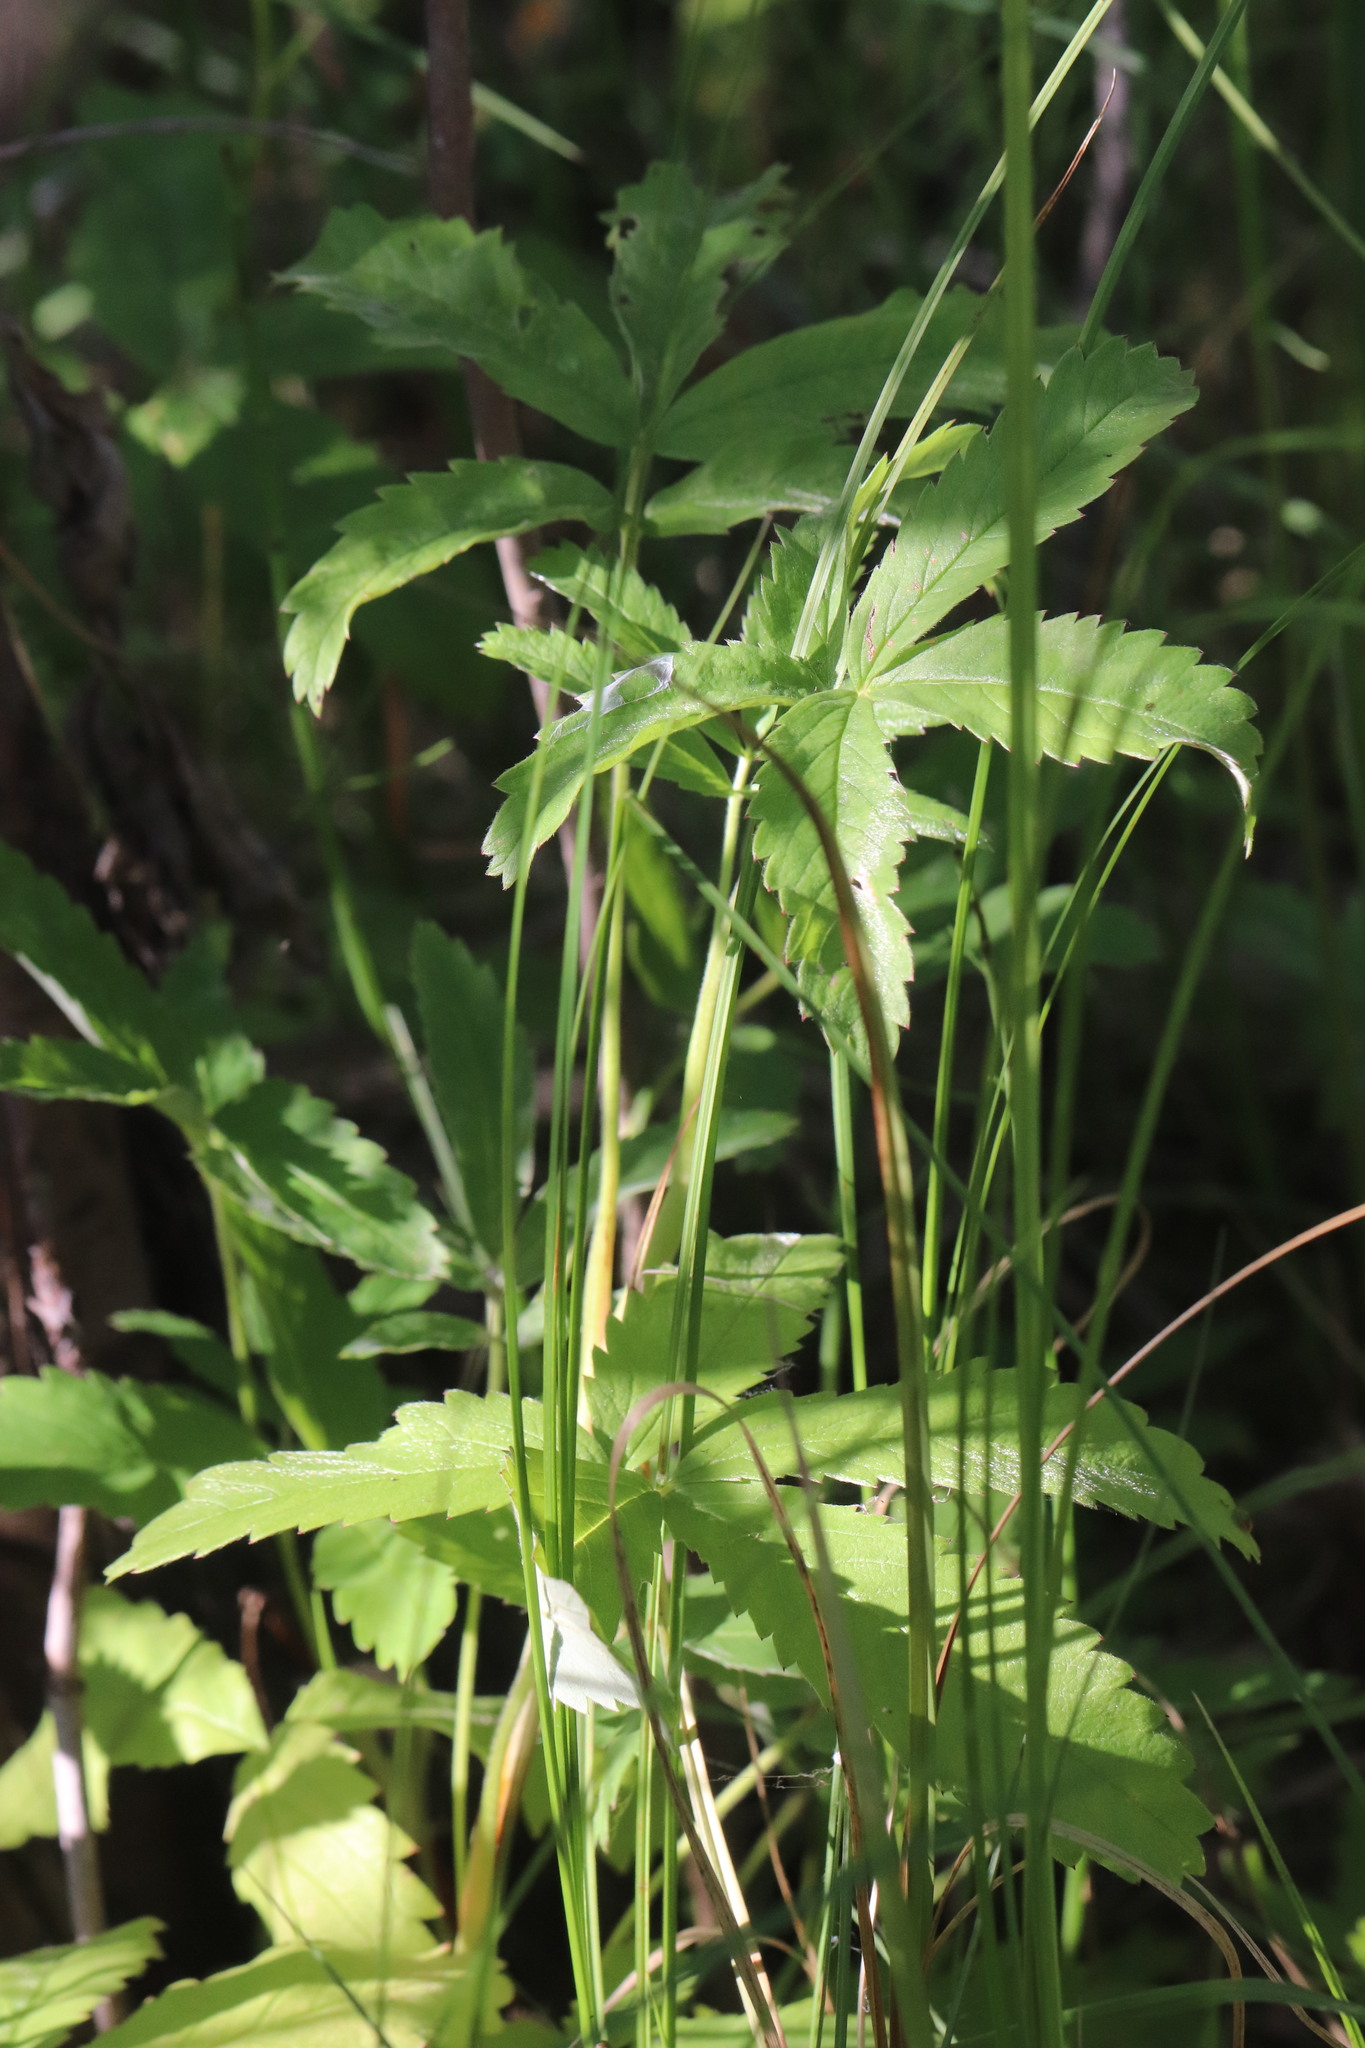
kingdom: Plantae
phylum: Tracheophyta
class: Magnoliopsida
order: Rosales
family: Rosaceae
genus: Comarum
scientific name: Comarum palustre
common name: Marsh cinquefoil
